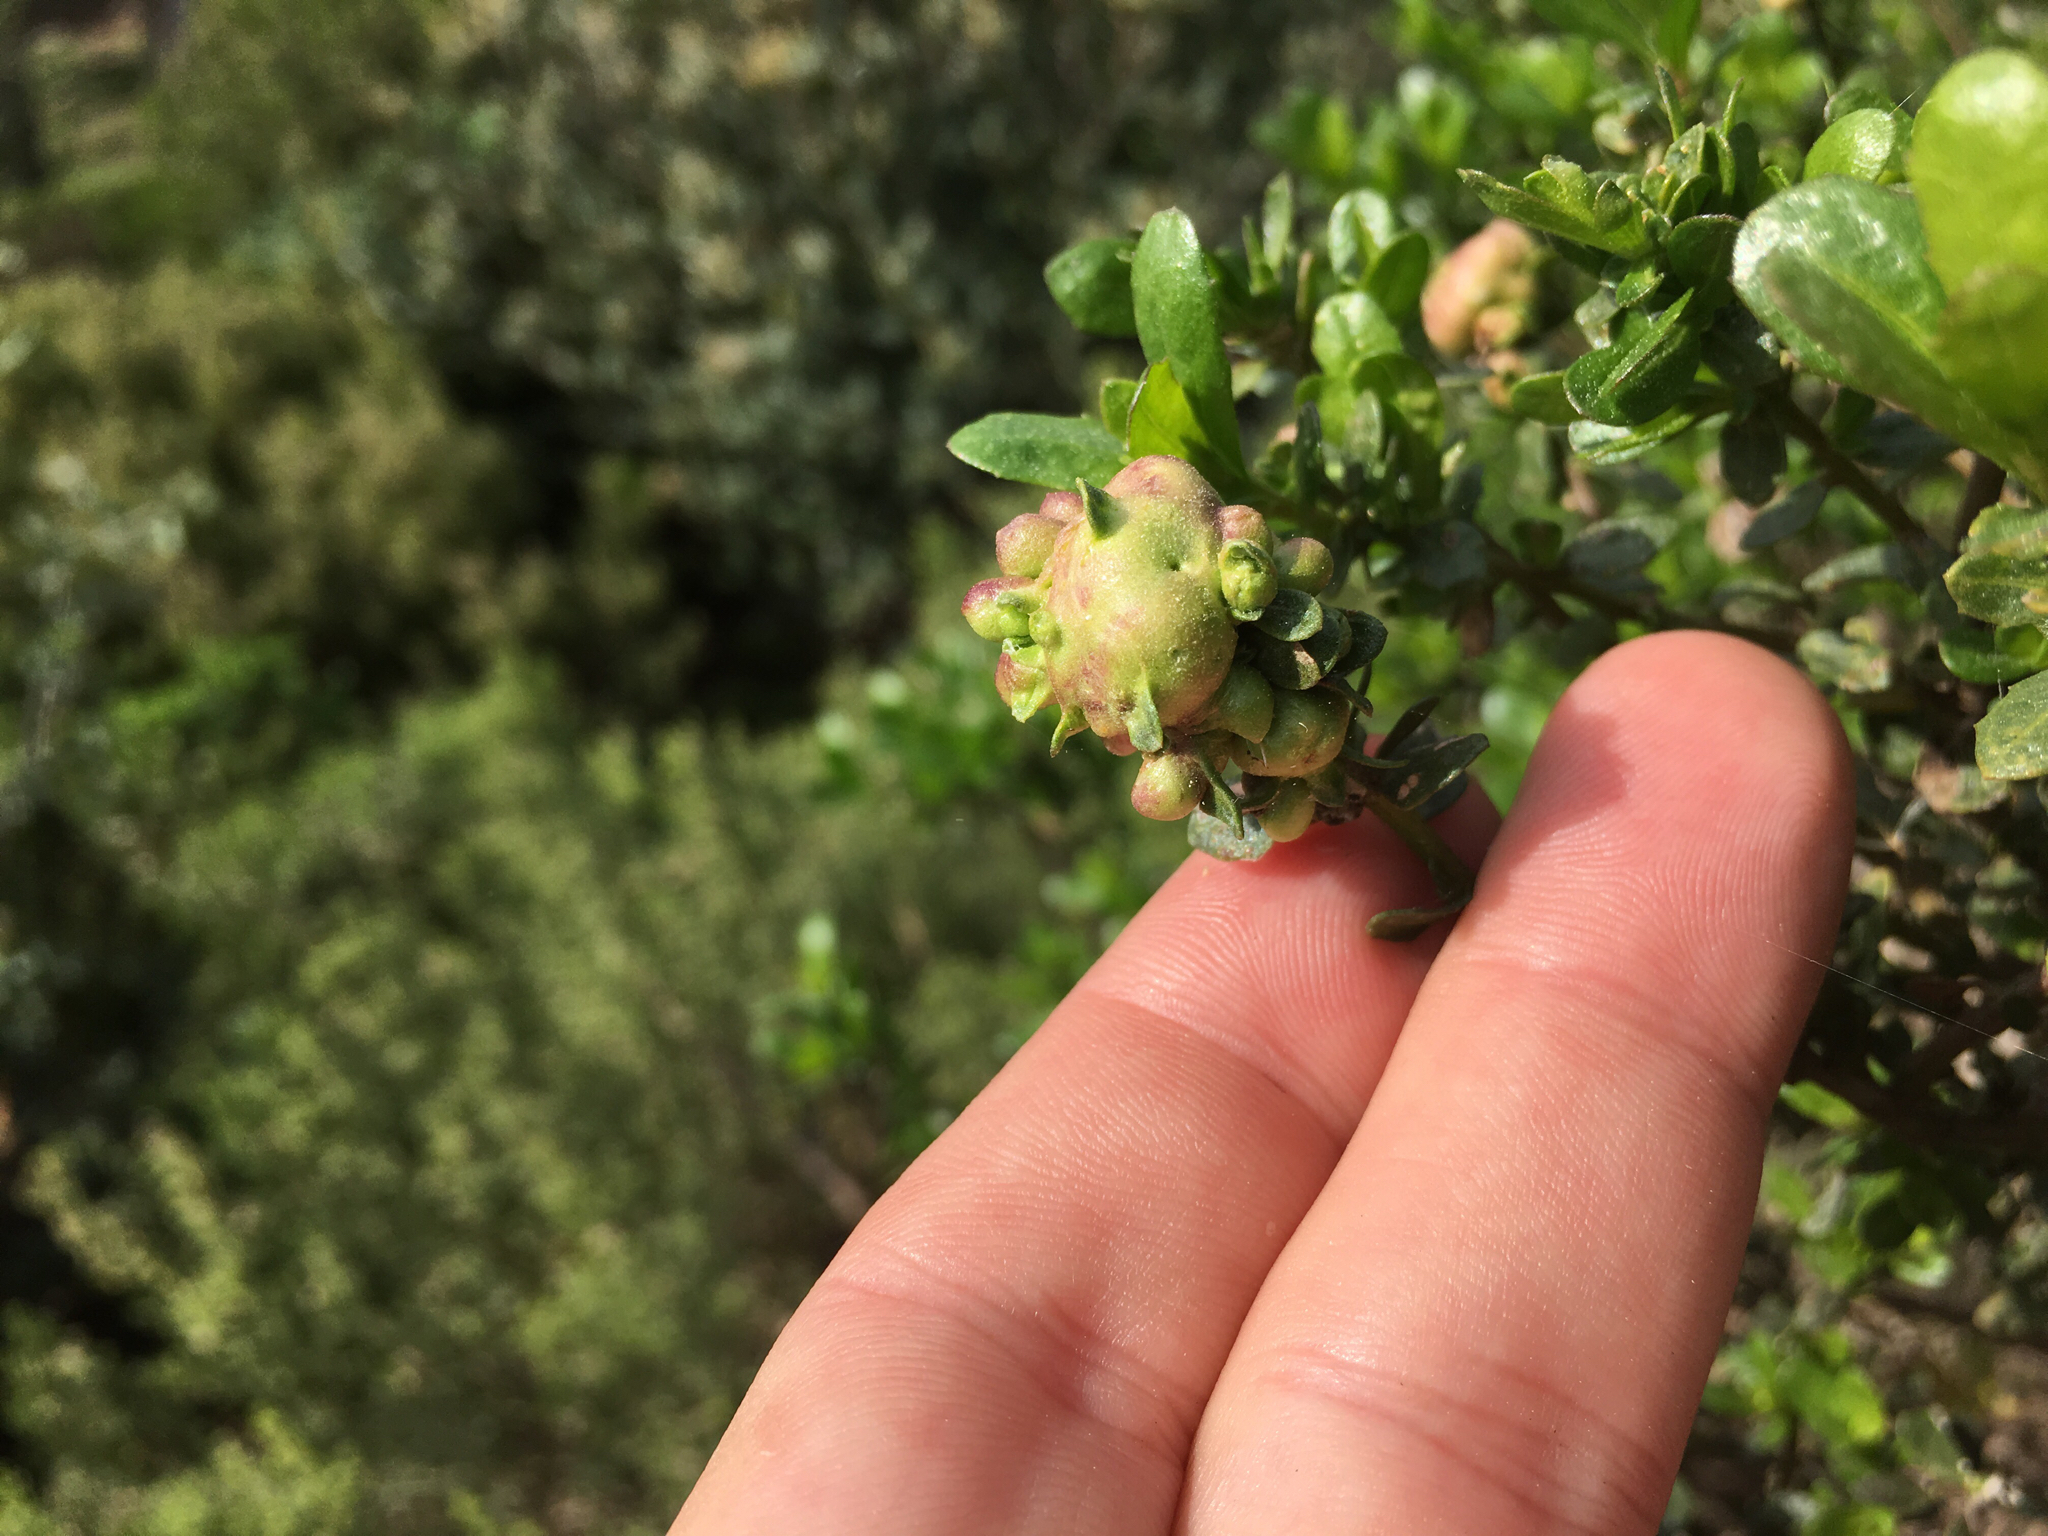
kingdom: Animalia
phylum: Arthropoda
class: Insecta
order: Diptera
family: Cecidomyiidae
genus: Rhopalomyia
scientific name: Rhopalomyia californica
